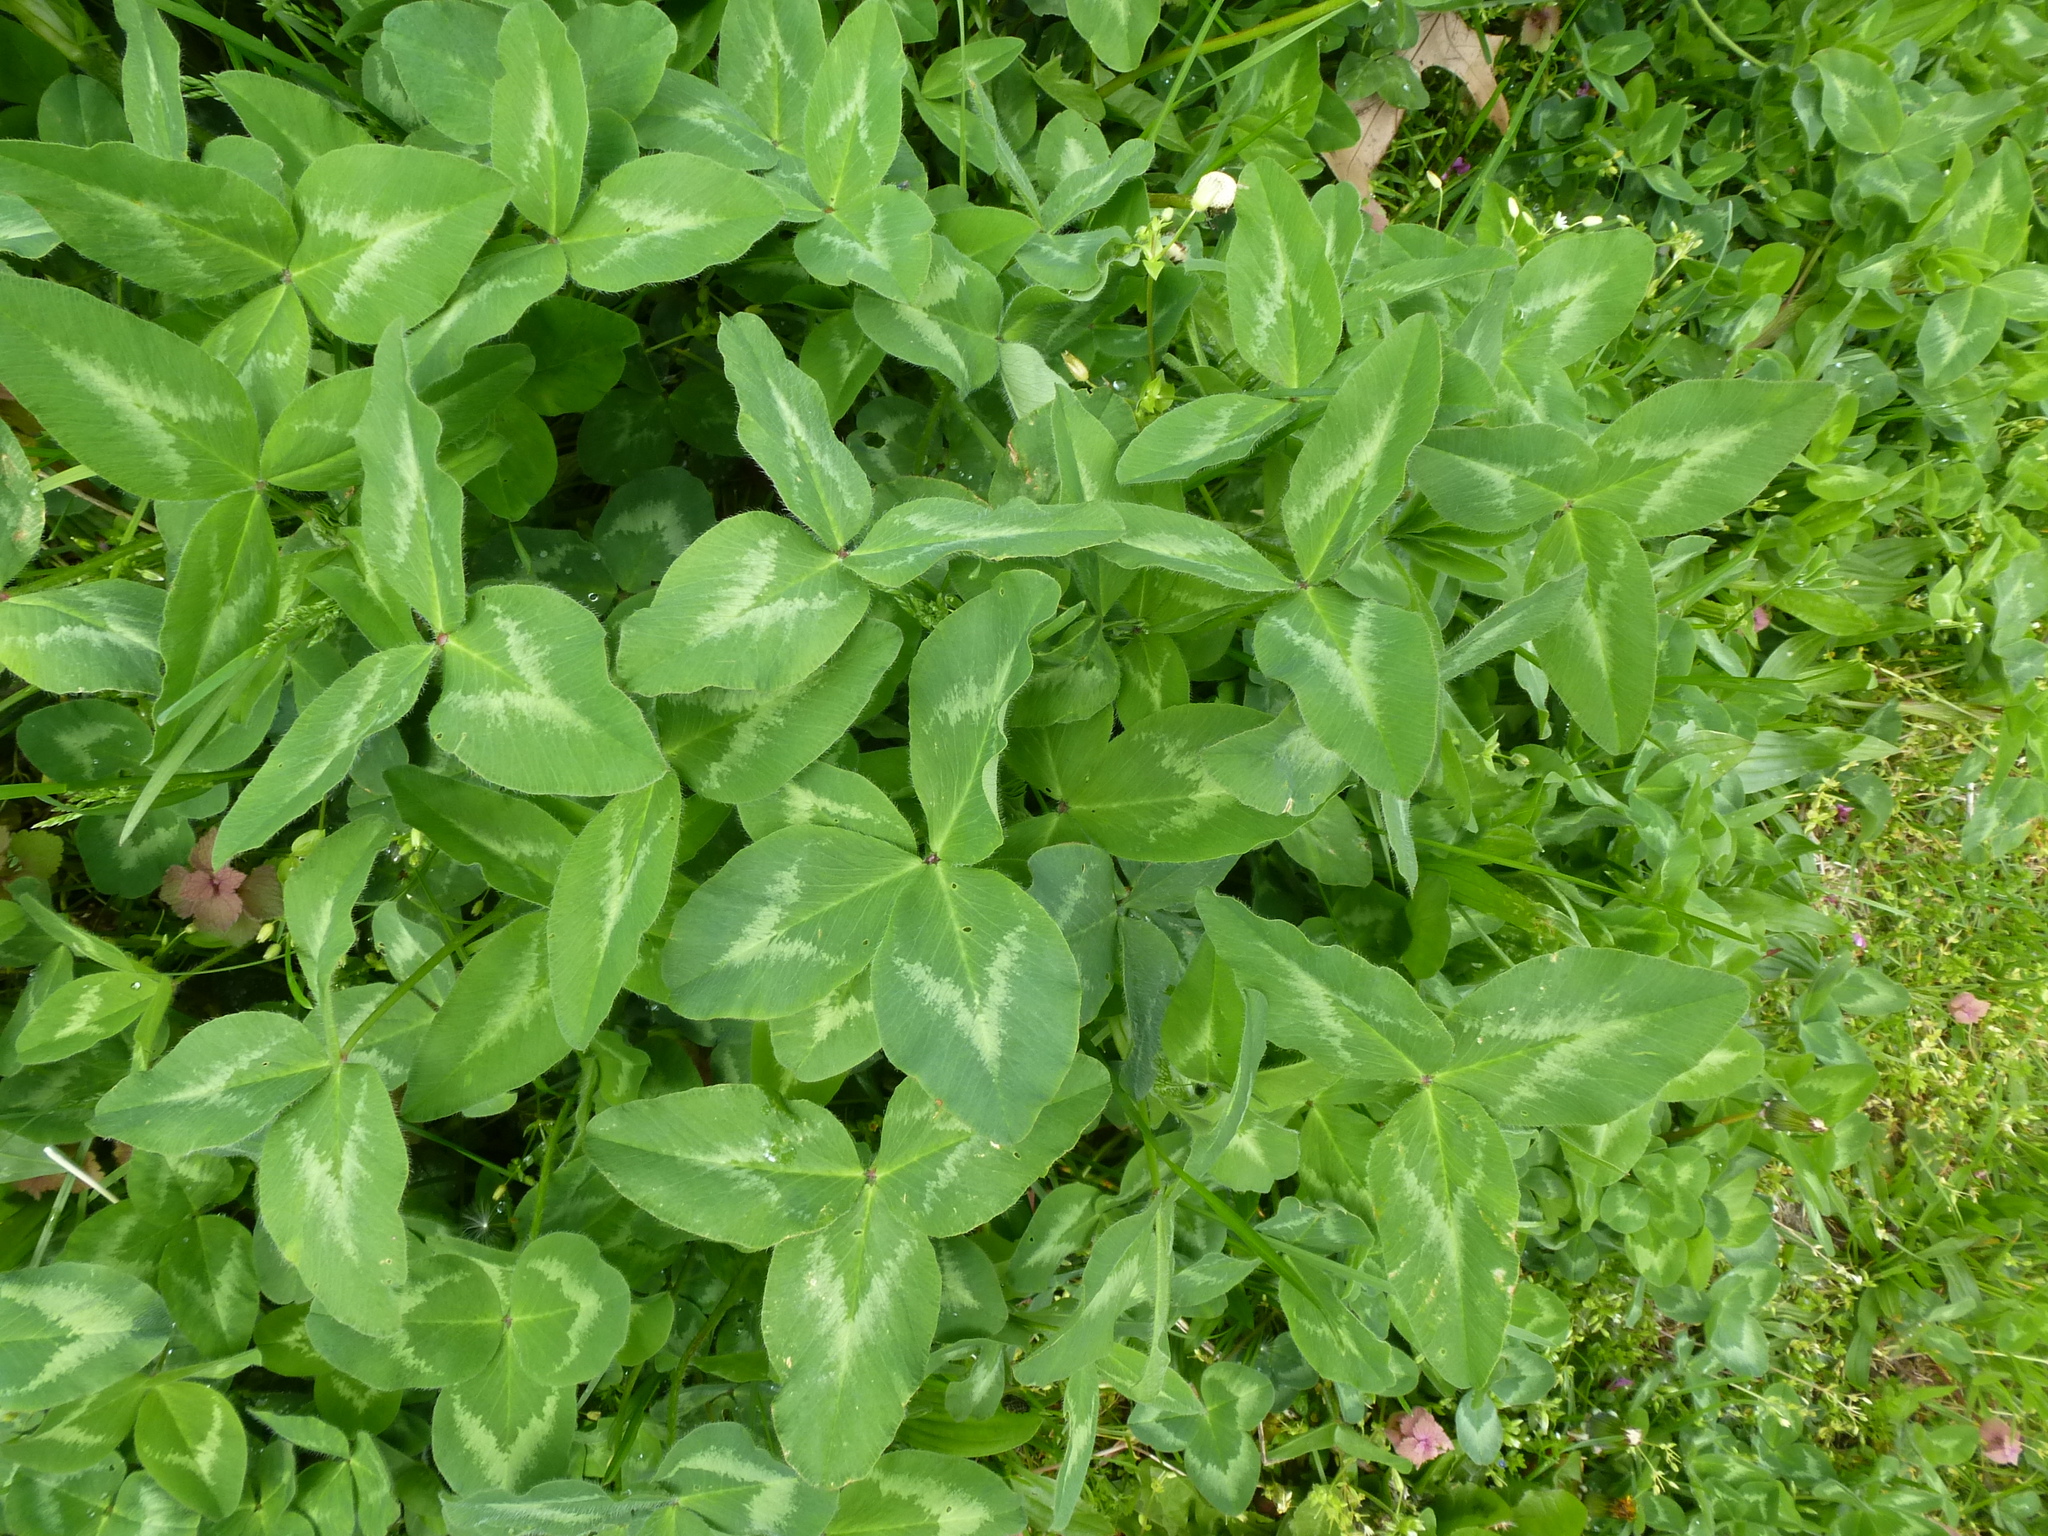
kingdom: Plantae
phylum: Tracheophyta
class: Magnoliopsida
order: Fabales
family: Fabaceae
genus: Trifolium
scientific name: Trifolium pratense
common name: Red clover
